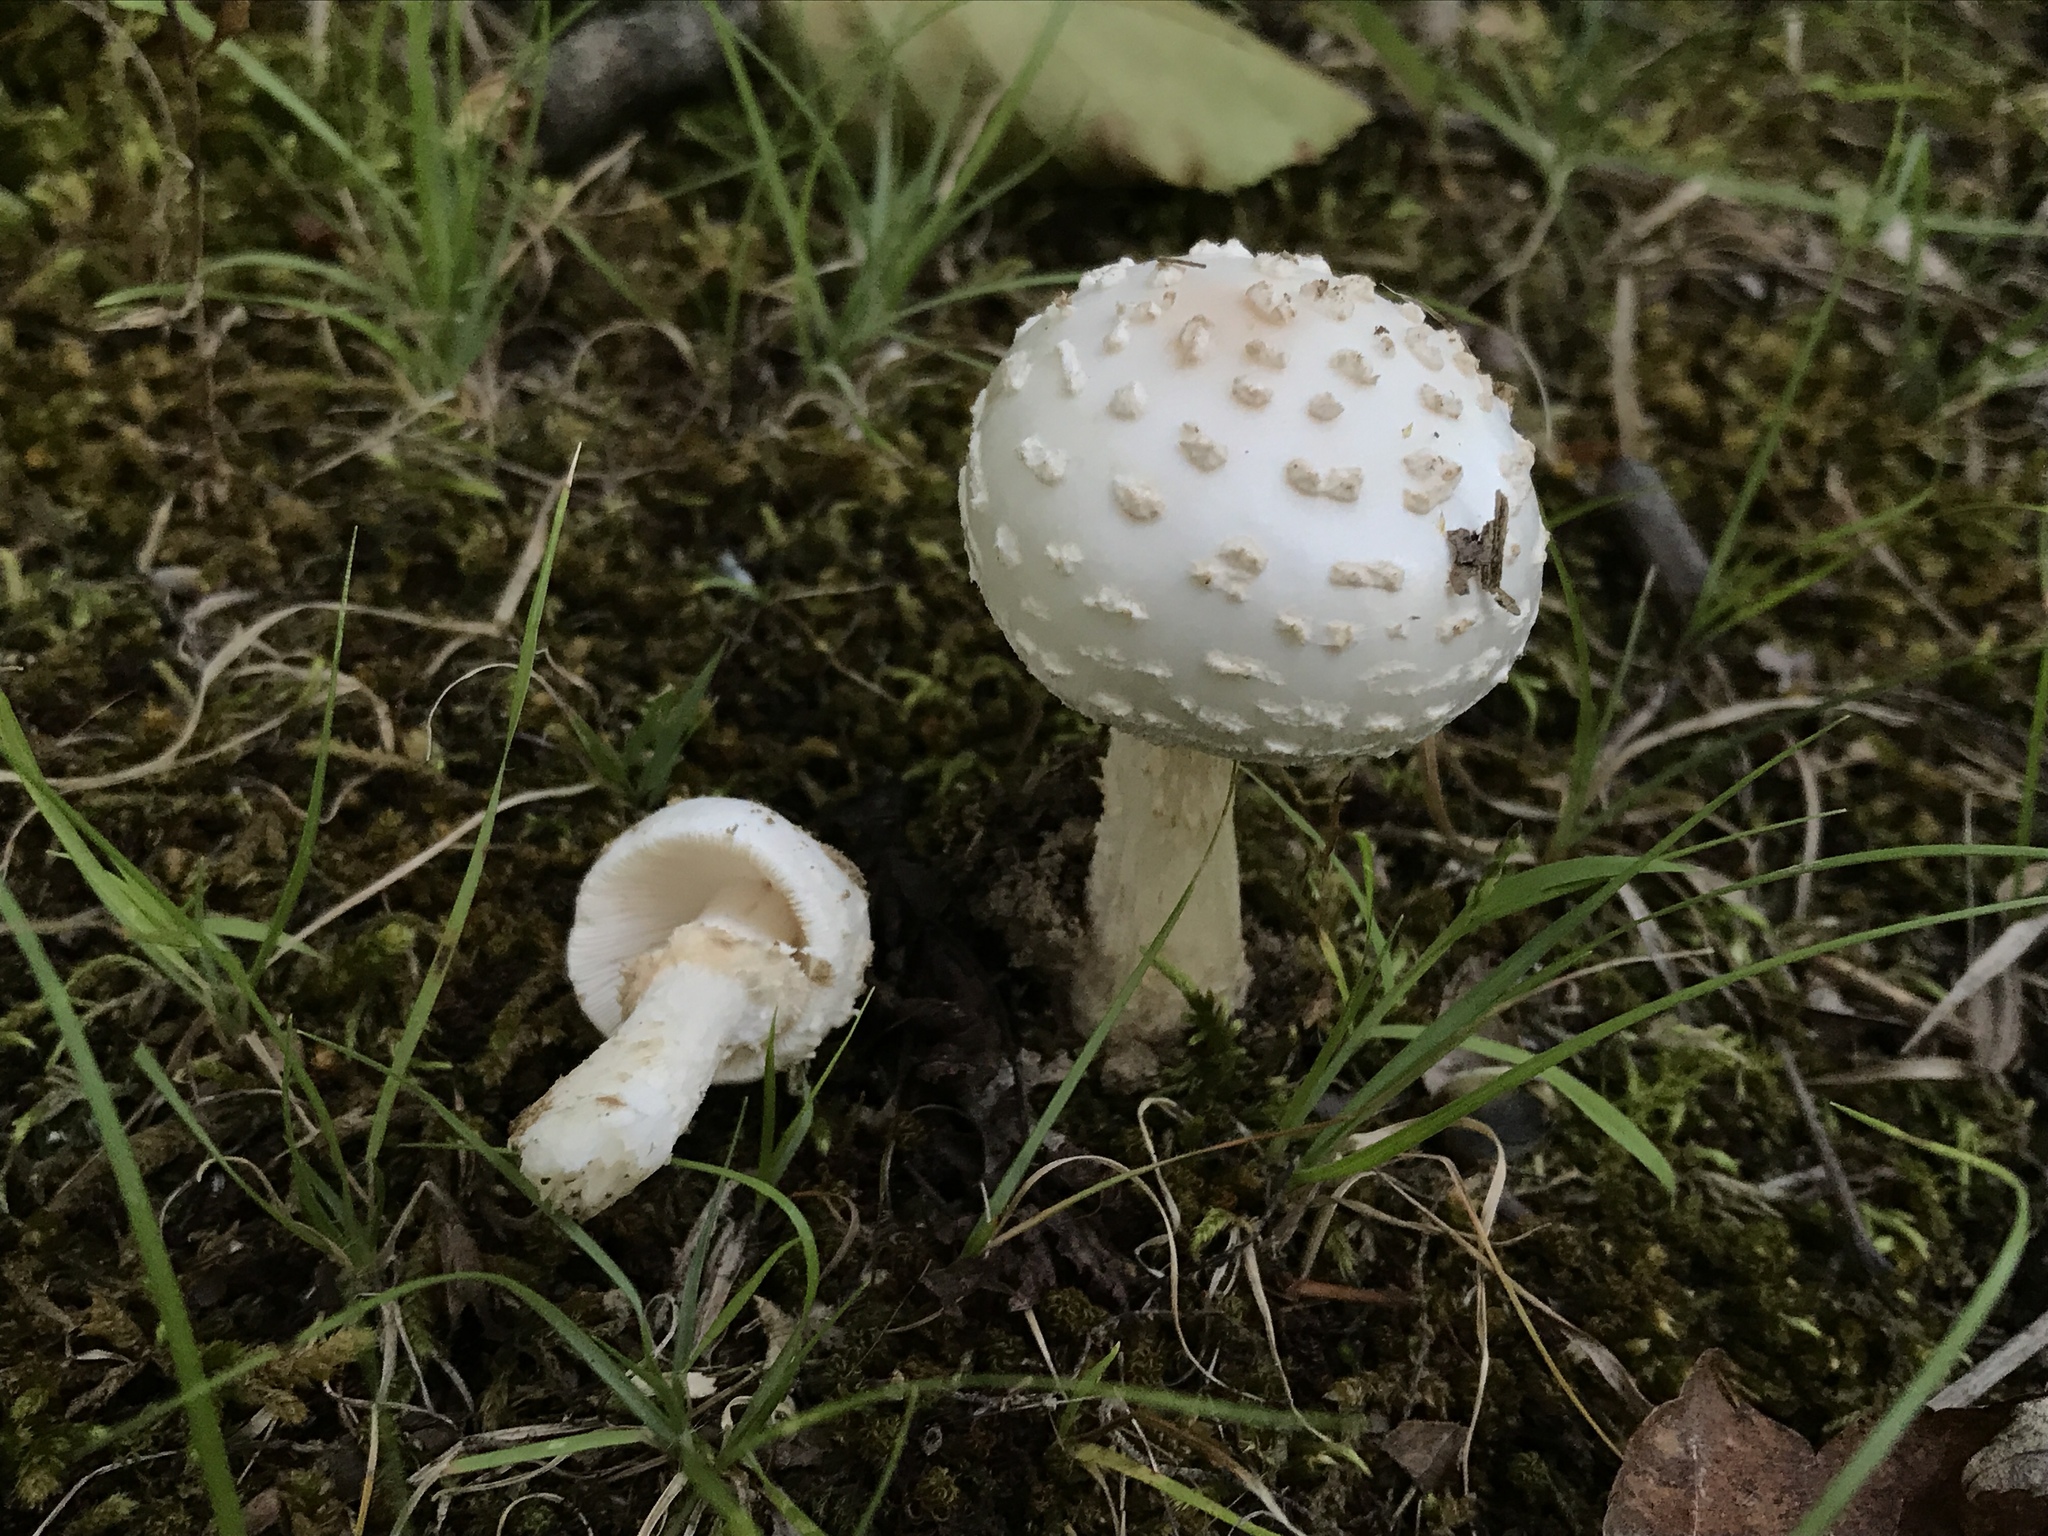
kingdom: Fungi
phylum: Basidiomycota
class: Agaricomycetes
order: Agaricales
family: Amanitaceae
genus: Amanita
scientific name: Amanita canescens
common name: Golden threads lepidella
